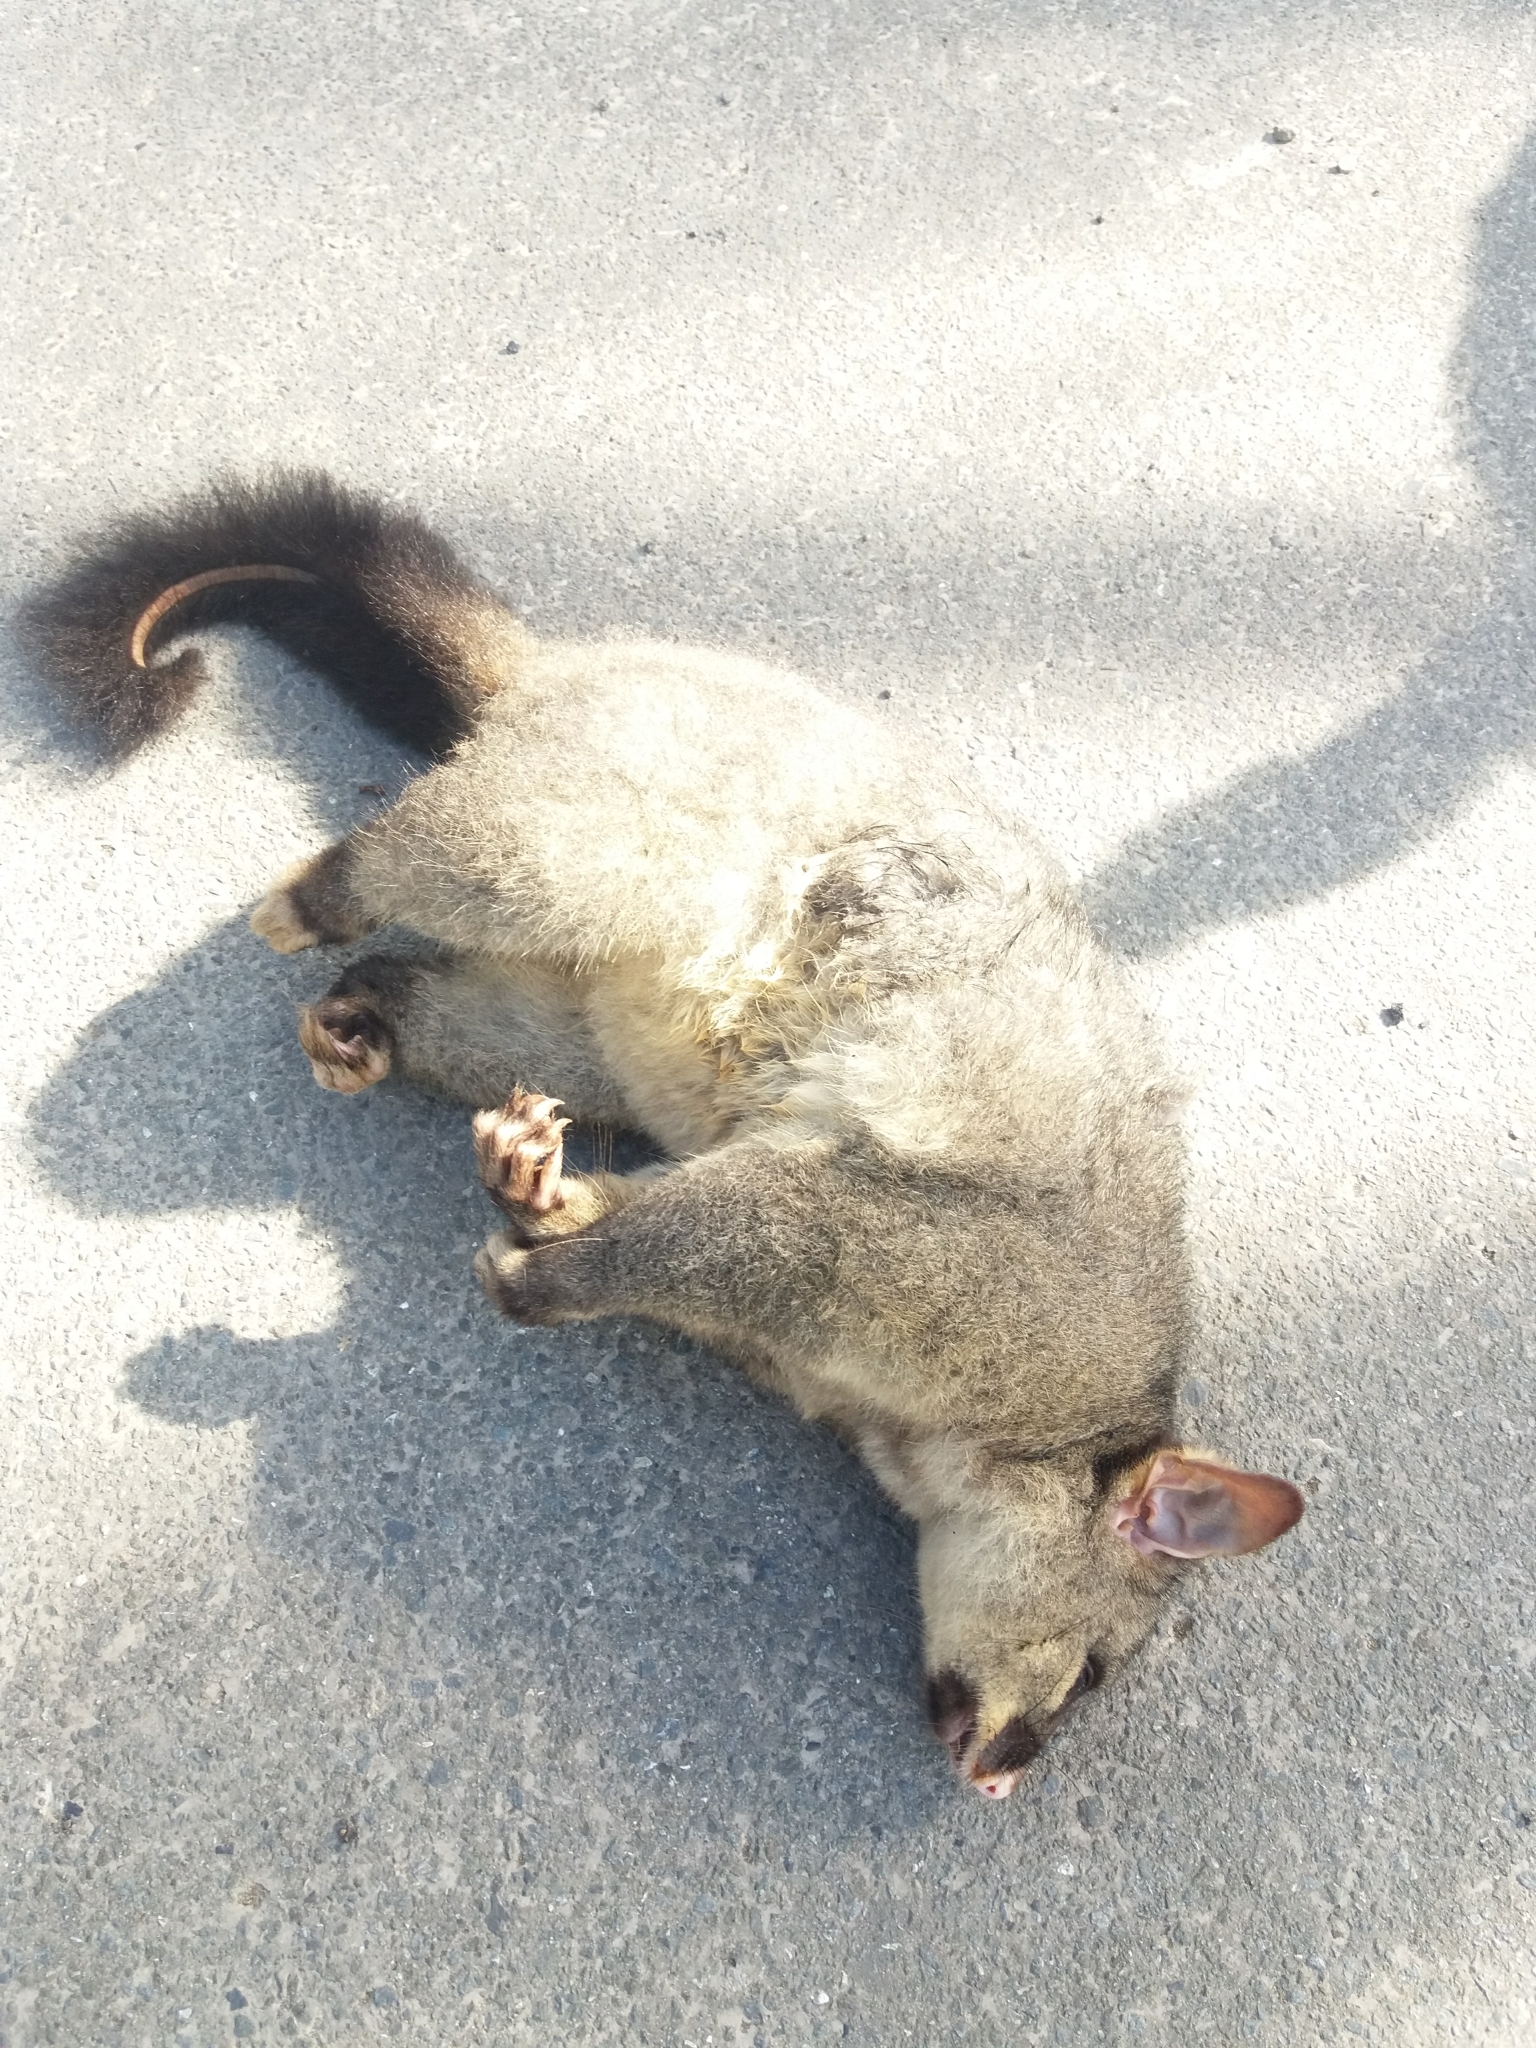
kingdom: Animalia
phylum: Chordata
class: Mammalia
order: Diprotodontia
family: Phalangeridae
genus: Trichosurus
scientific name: Trichosurus vulpecula
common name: Common brushtail
